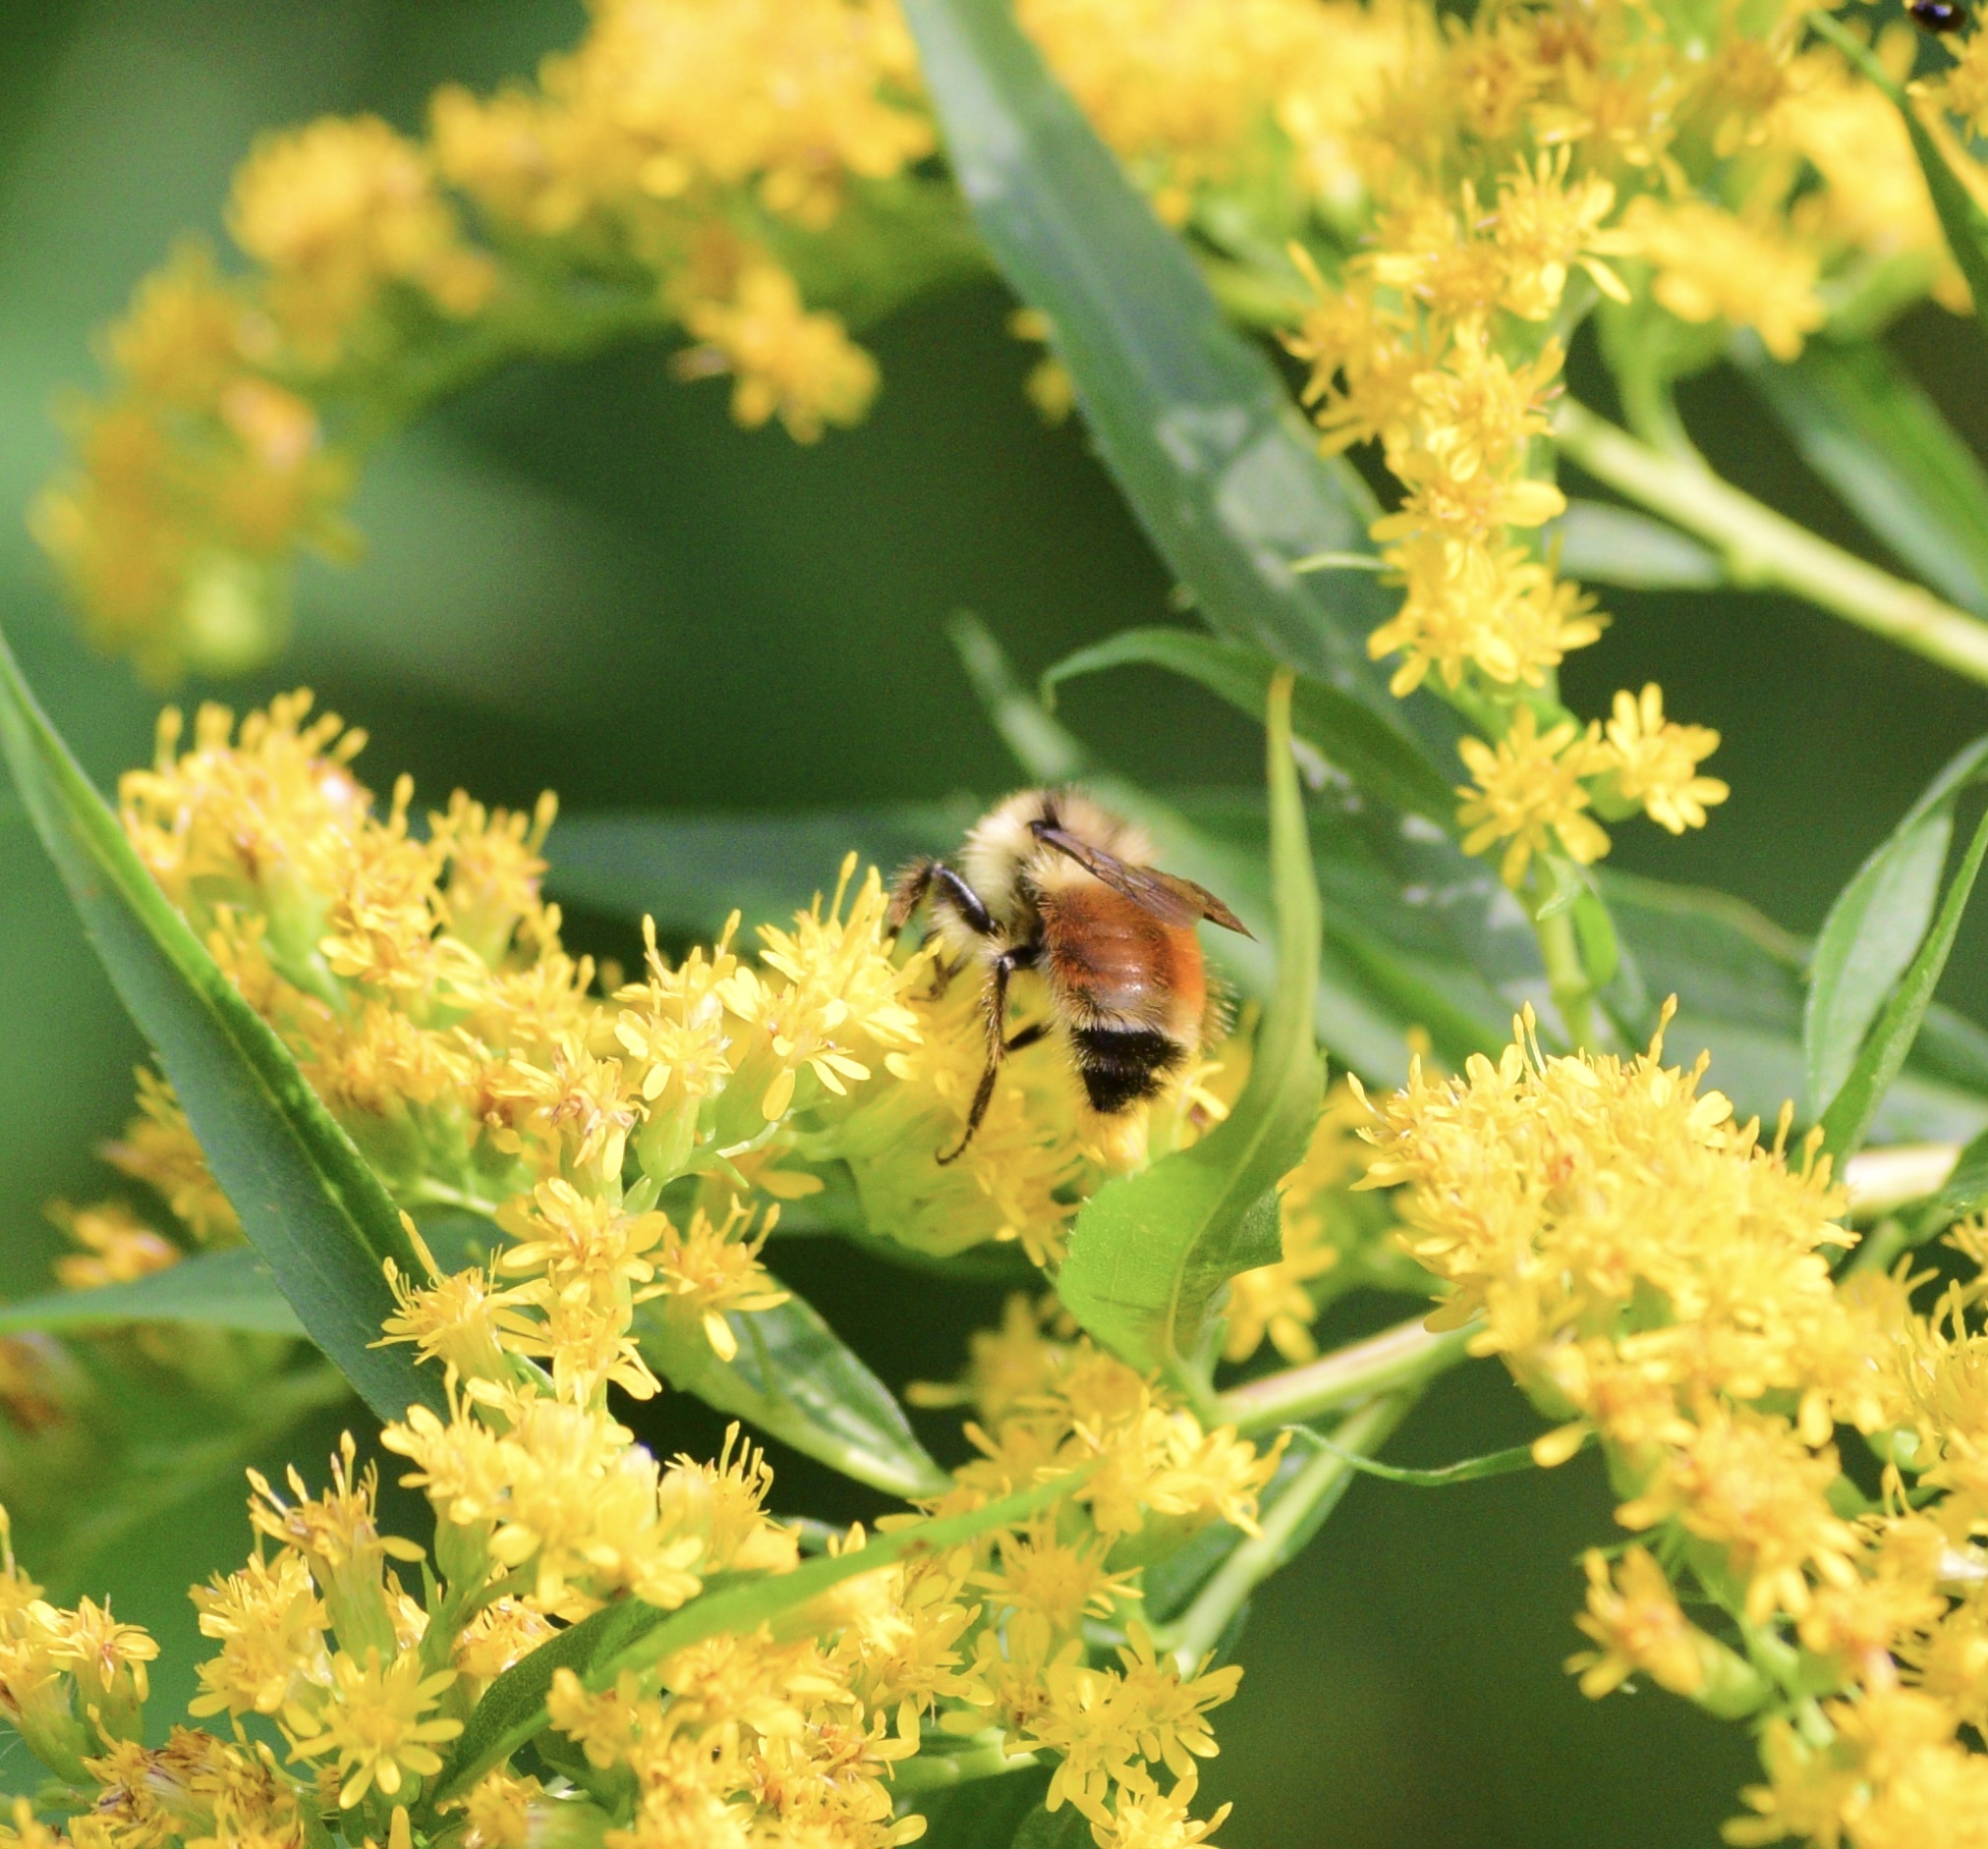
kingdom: Animalia
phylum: Arthropoda
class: Insecta
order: Hymenoptera
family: Apidae
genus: Bombus
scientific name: Bombus ternarius
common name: Tri-colored bumble bee
